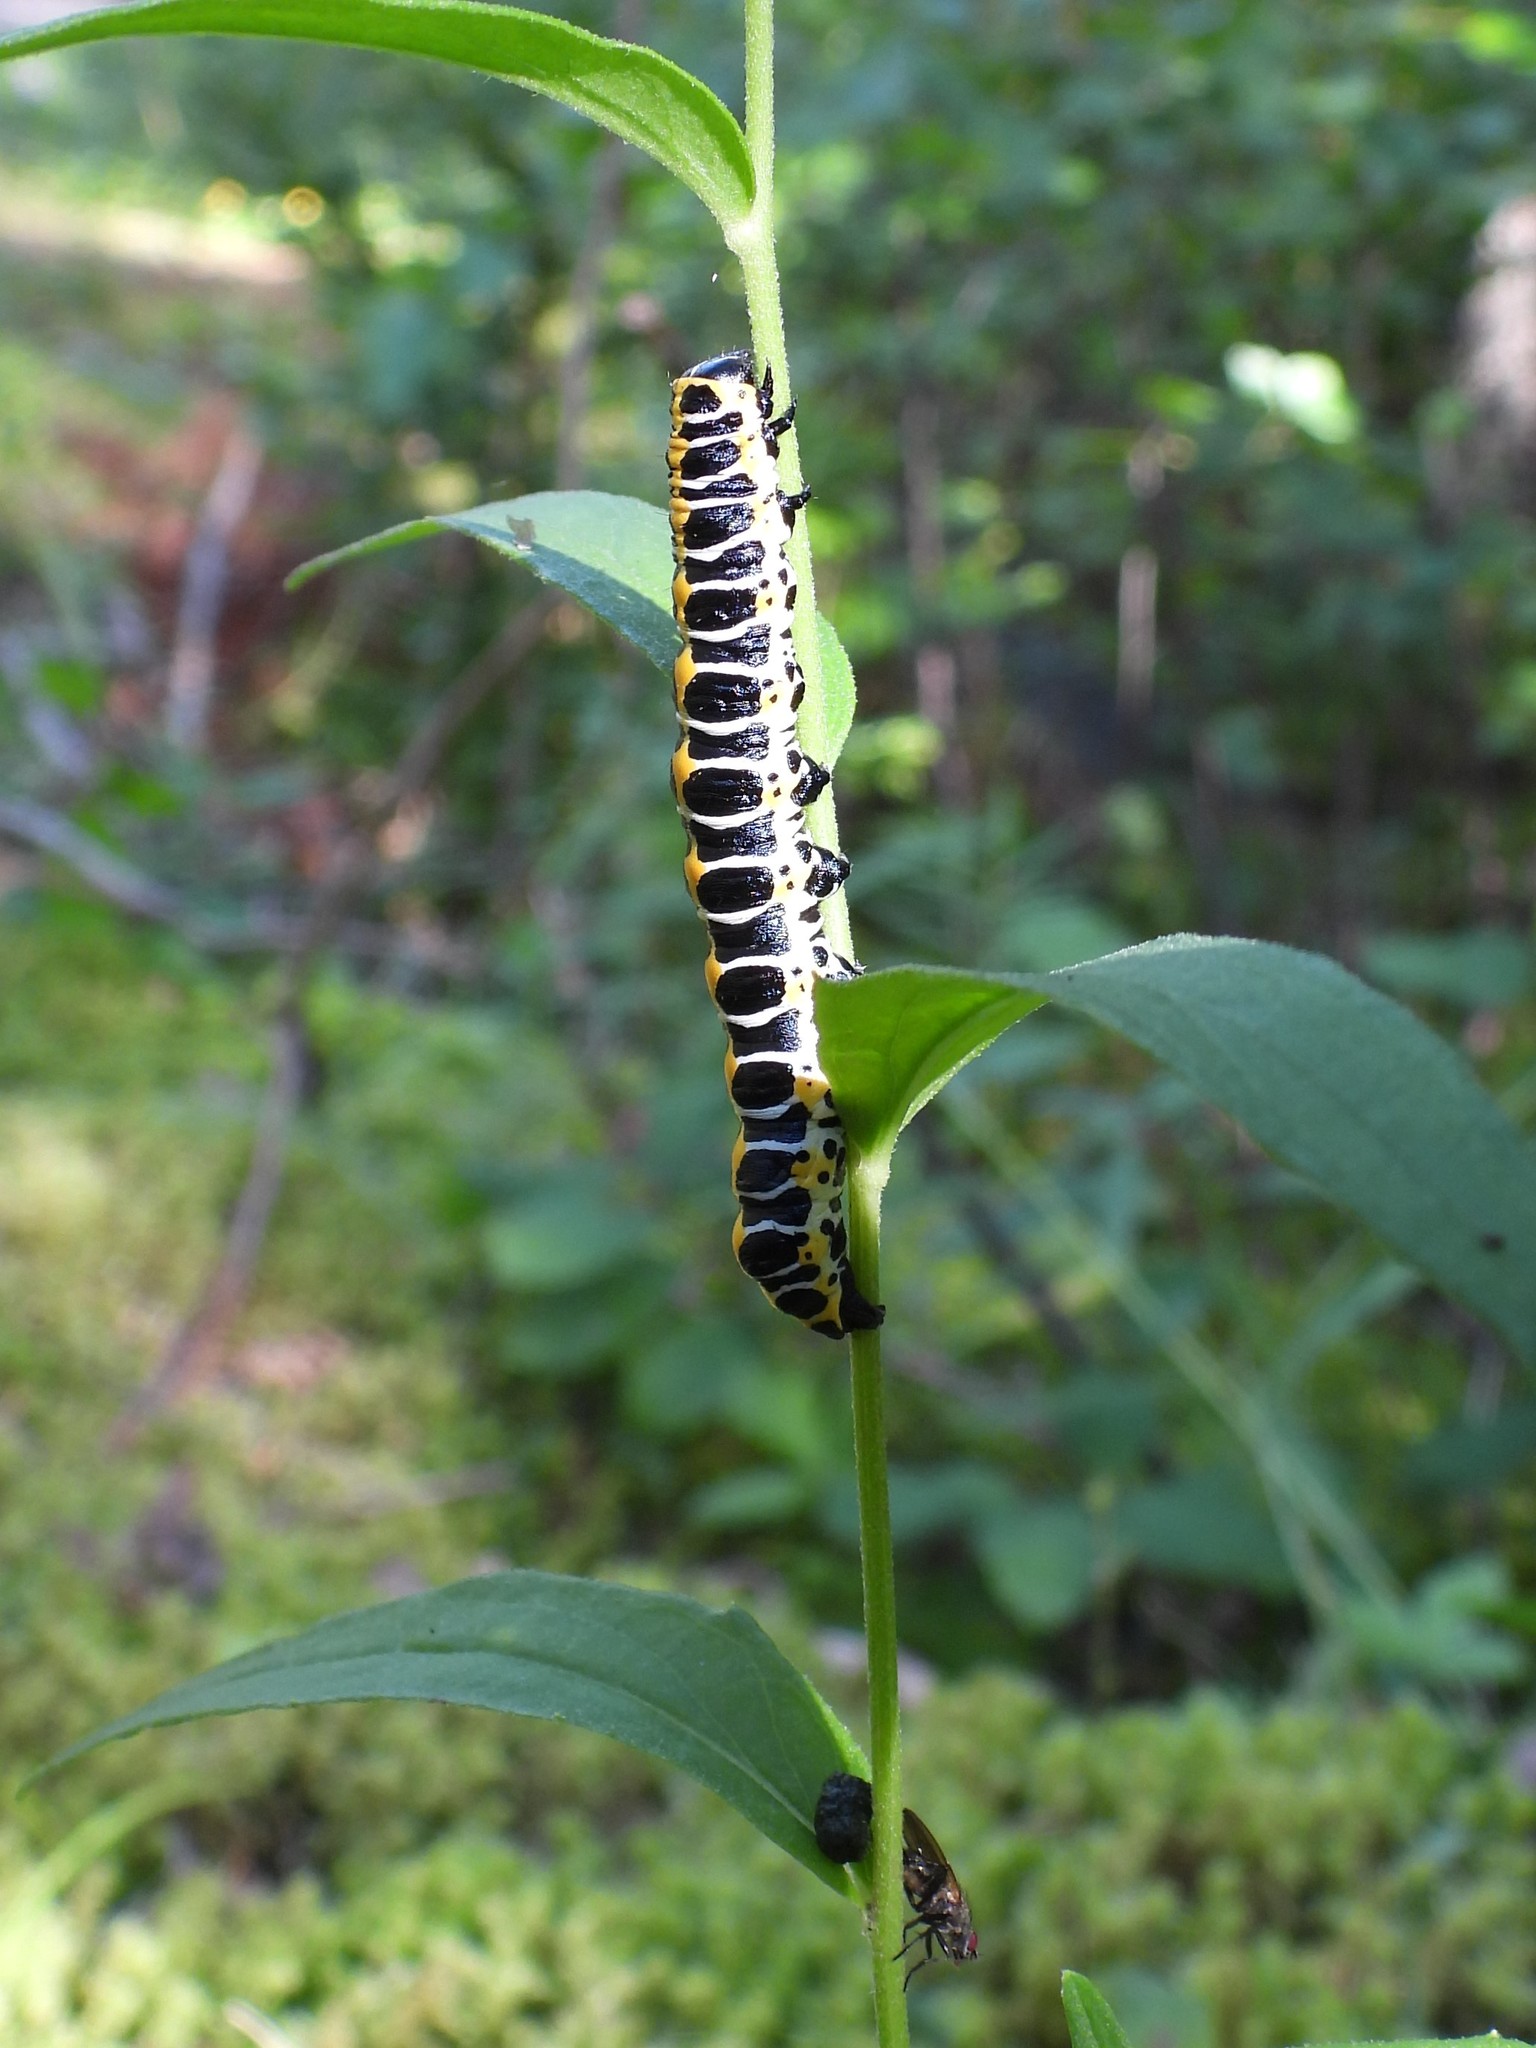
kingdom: Animalia
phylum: Arthropoda
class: Insecta
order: Lepidoptera
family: Noctuidae
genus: Cucullia
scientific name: Cucullia lactucae
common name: Lettuce shark
